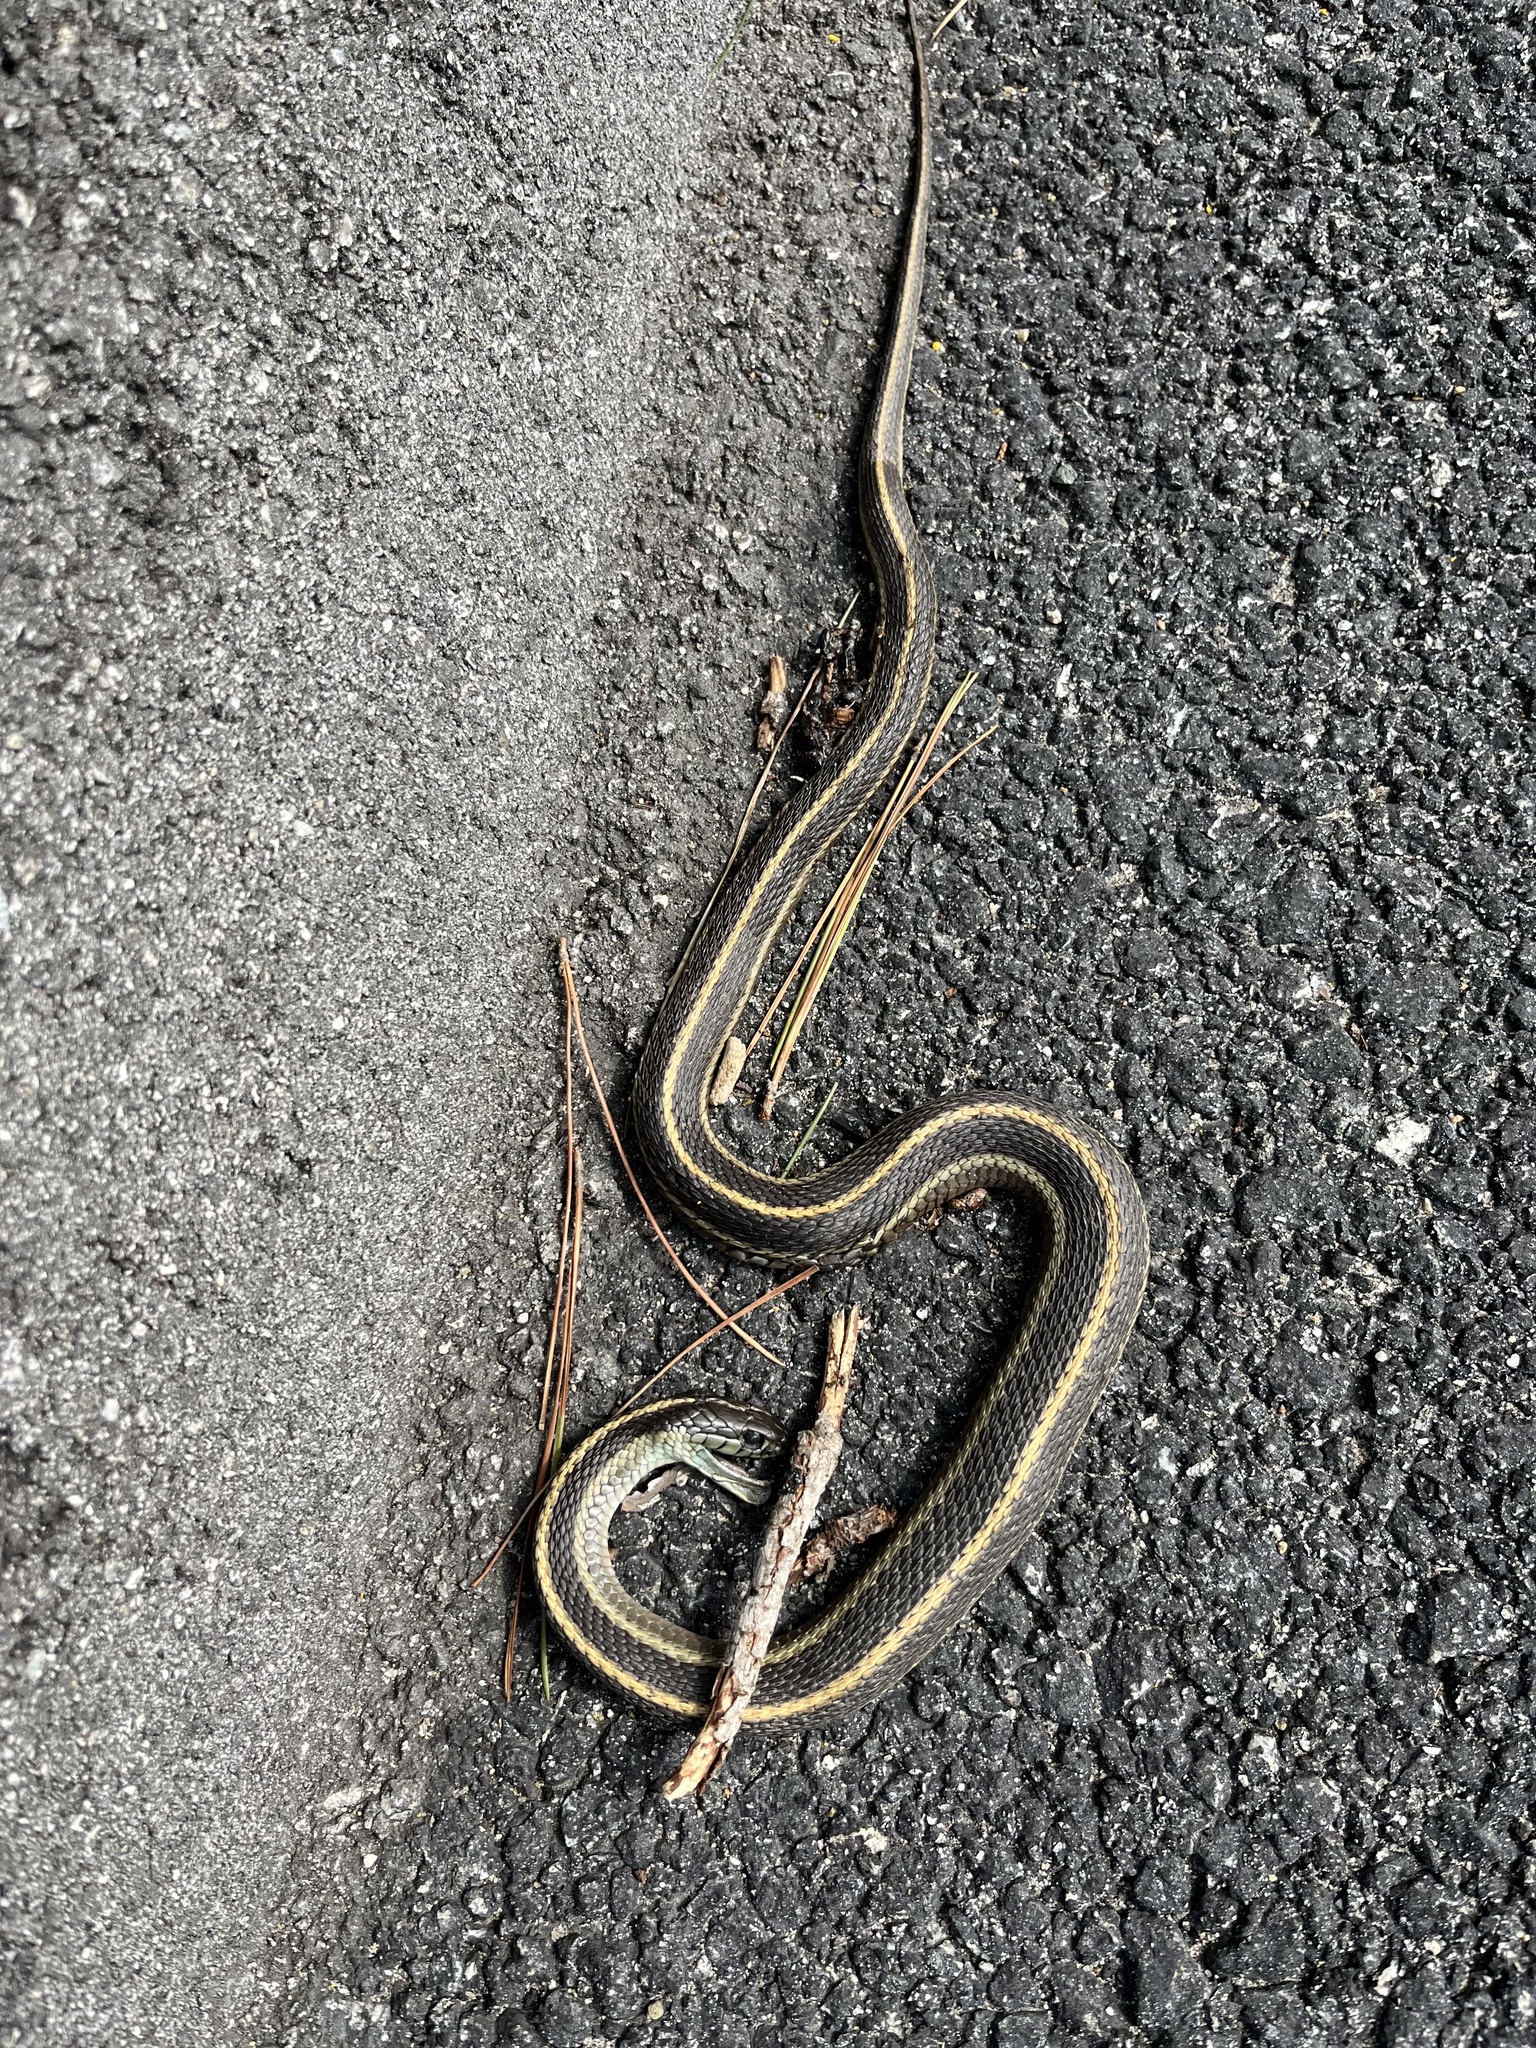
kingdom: Animalia
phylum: Chordata
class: Squamata
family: Colubridae
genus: Thamnophis
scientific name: Thamnophis atratus
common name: Pacific coast aquatic garter snake
